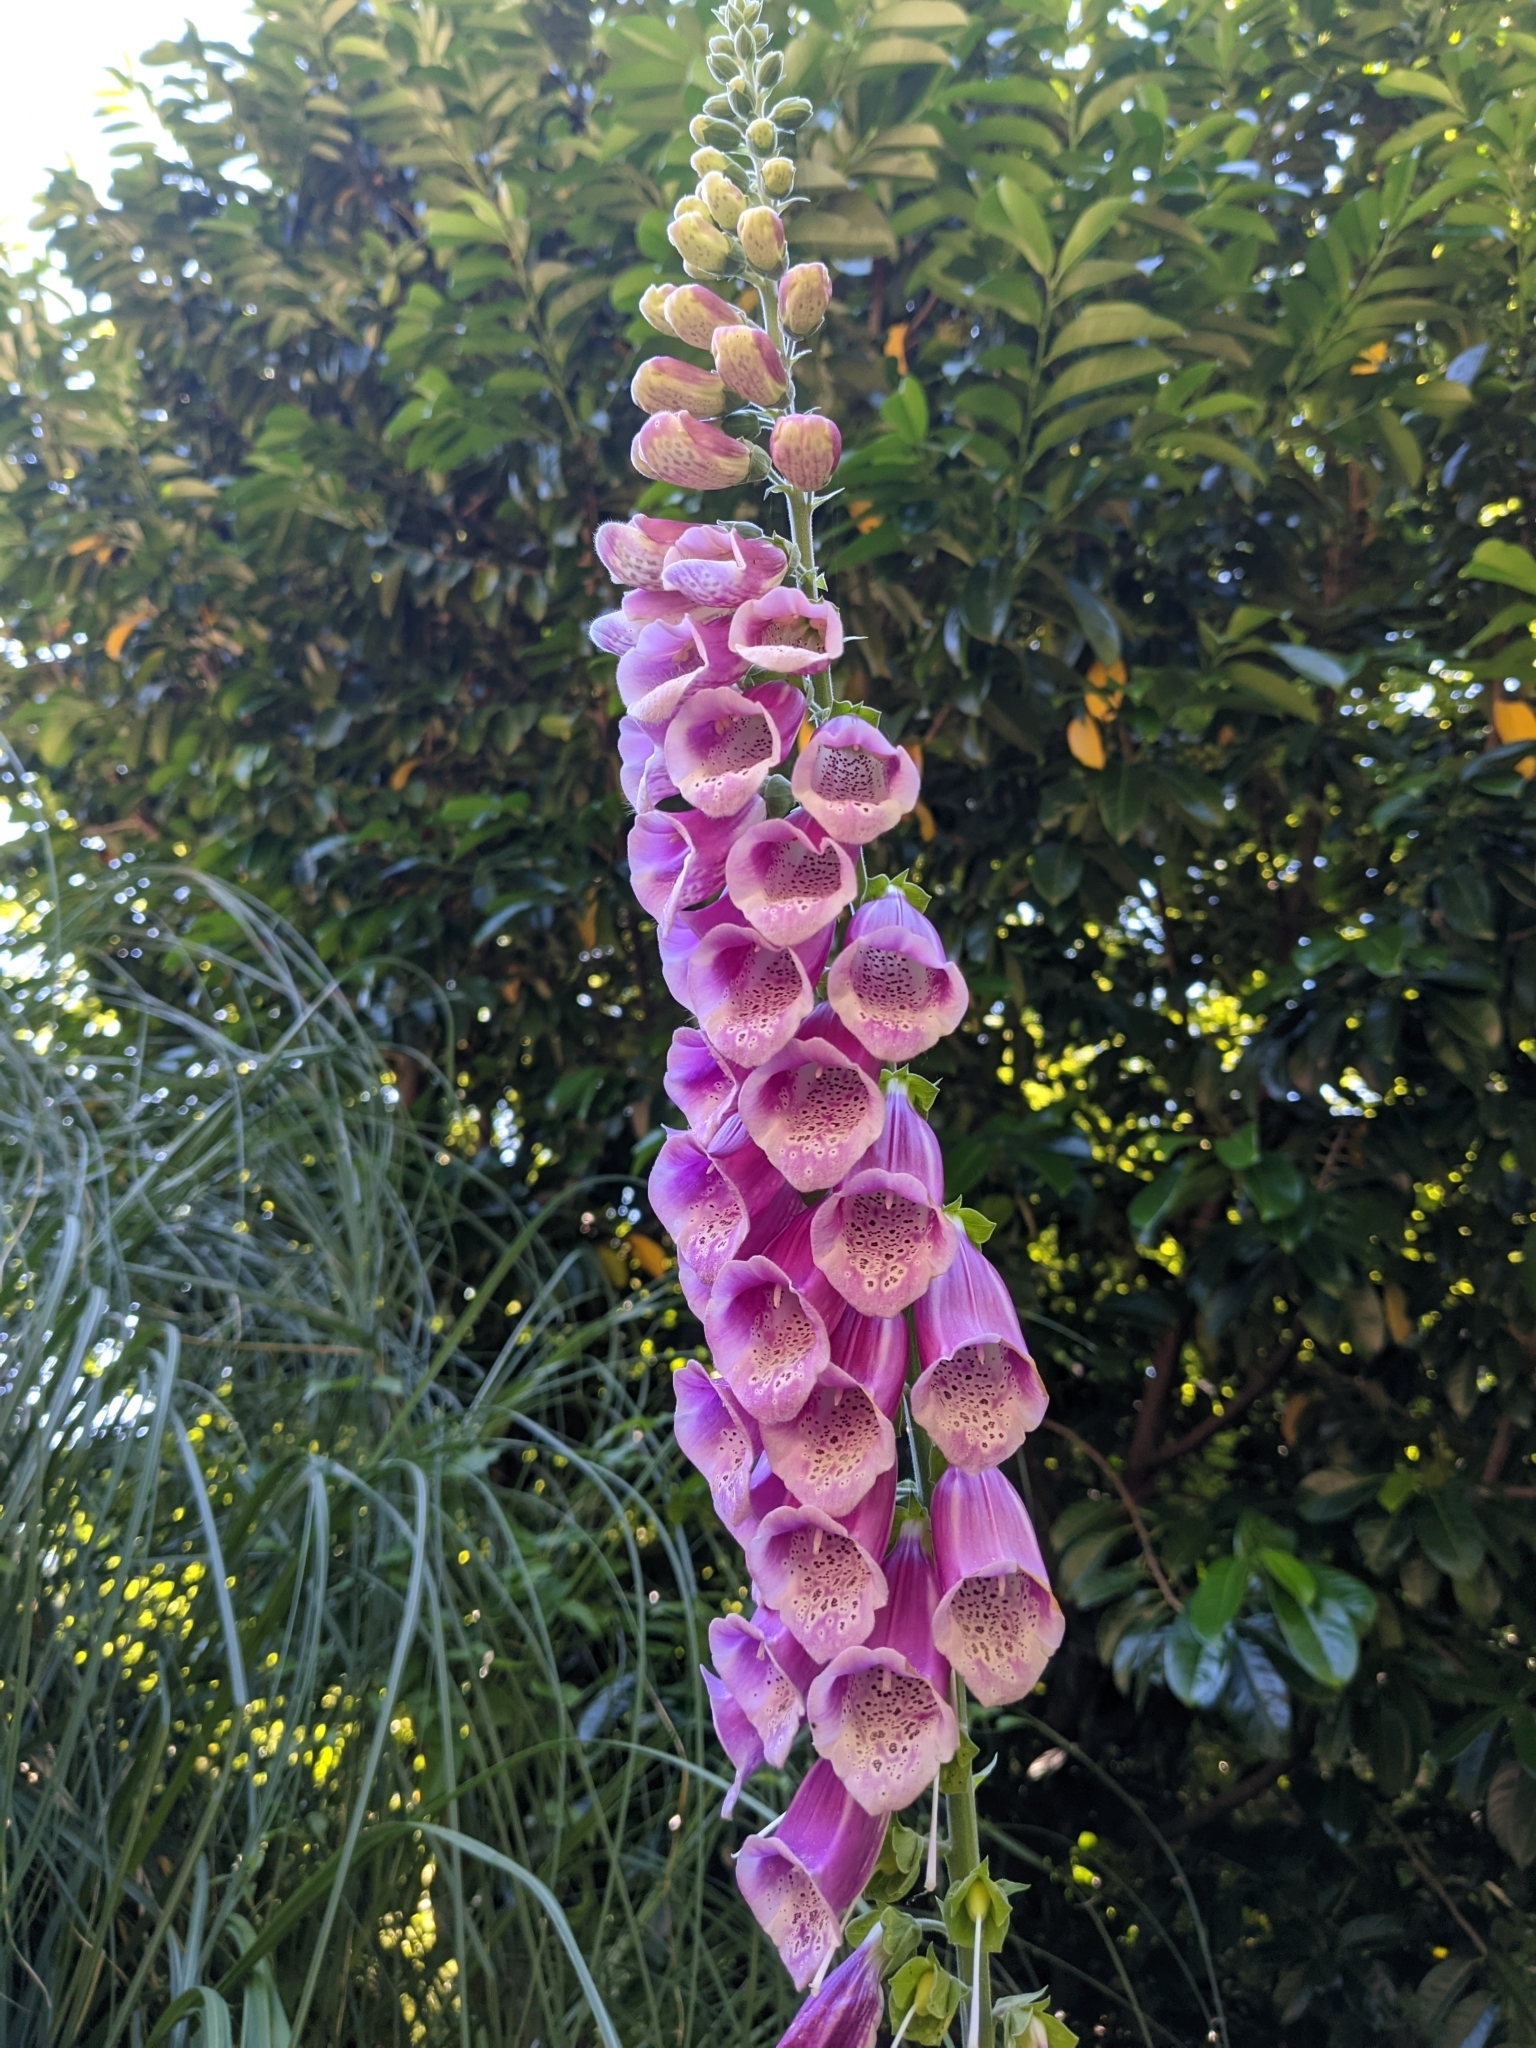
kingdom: Plantae
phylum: Tracheophyta
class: Magnoliopsida
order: Lamiales
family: Plantaginaceae
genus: Digitalis
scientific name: Digitalis purpurea
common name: Foxglove
